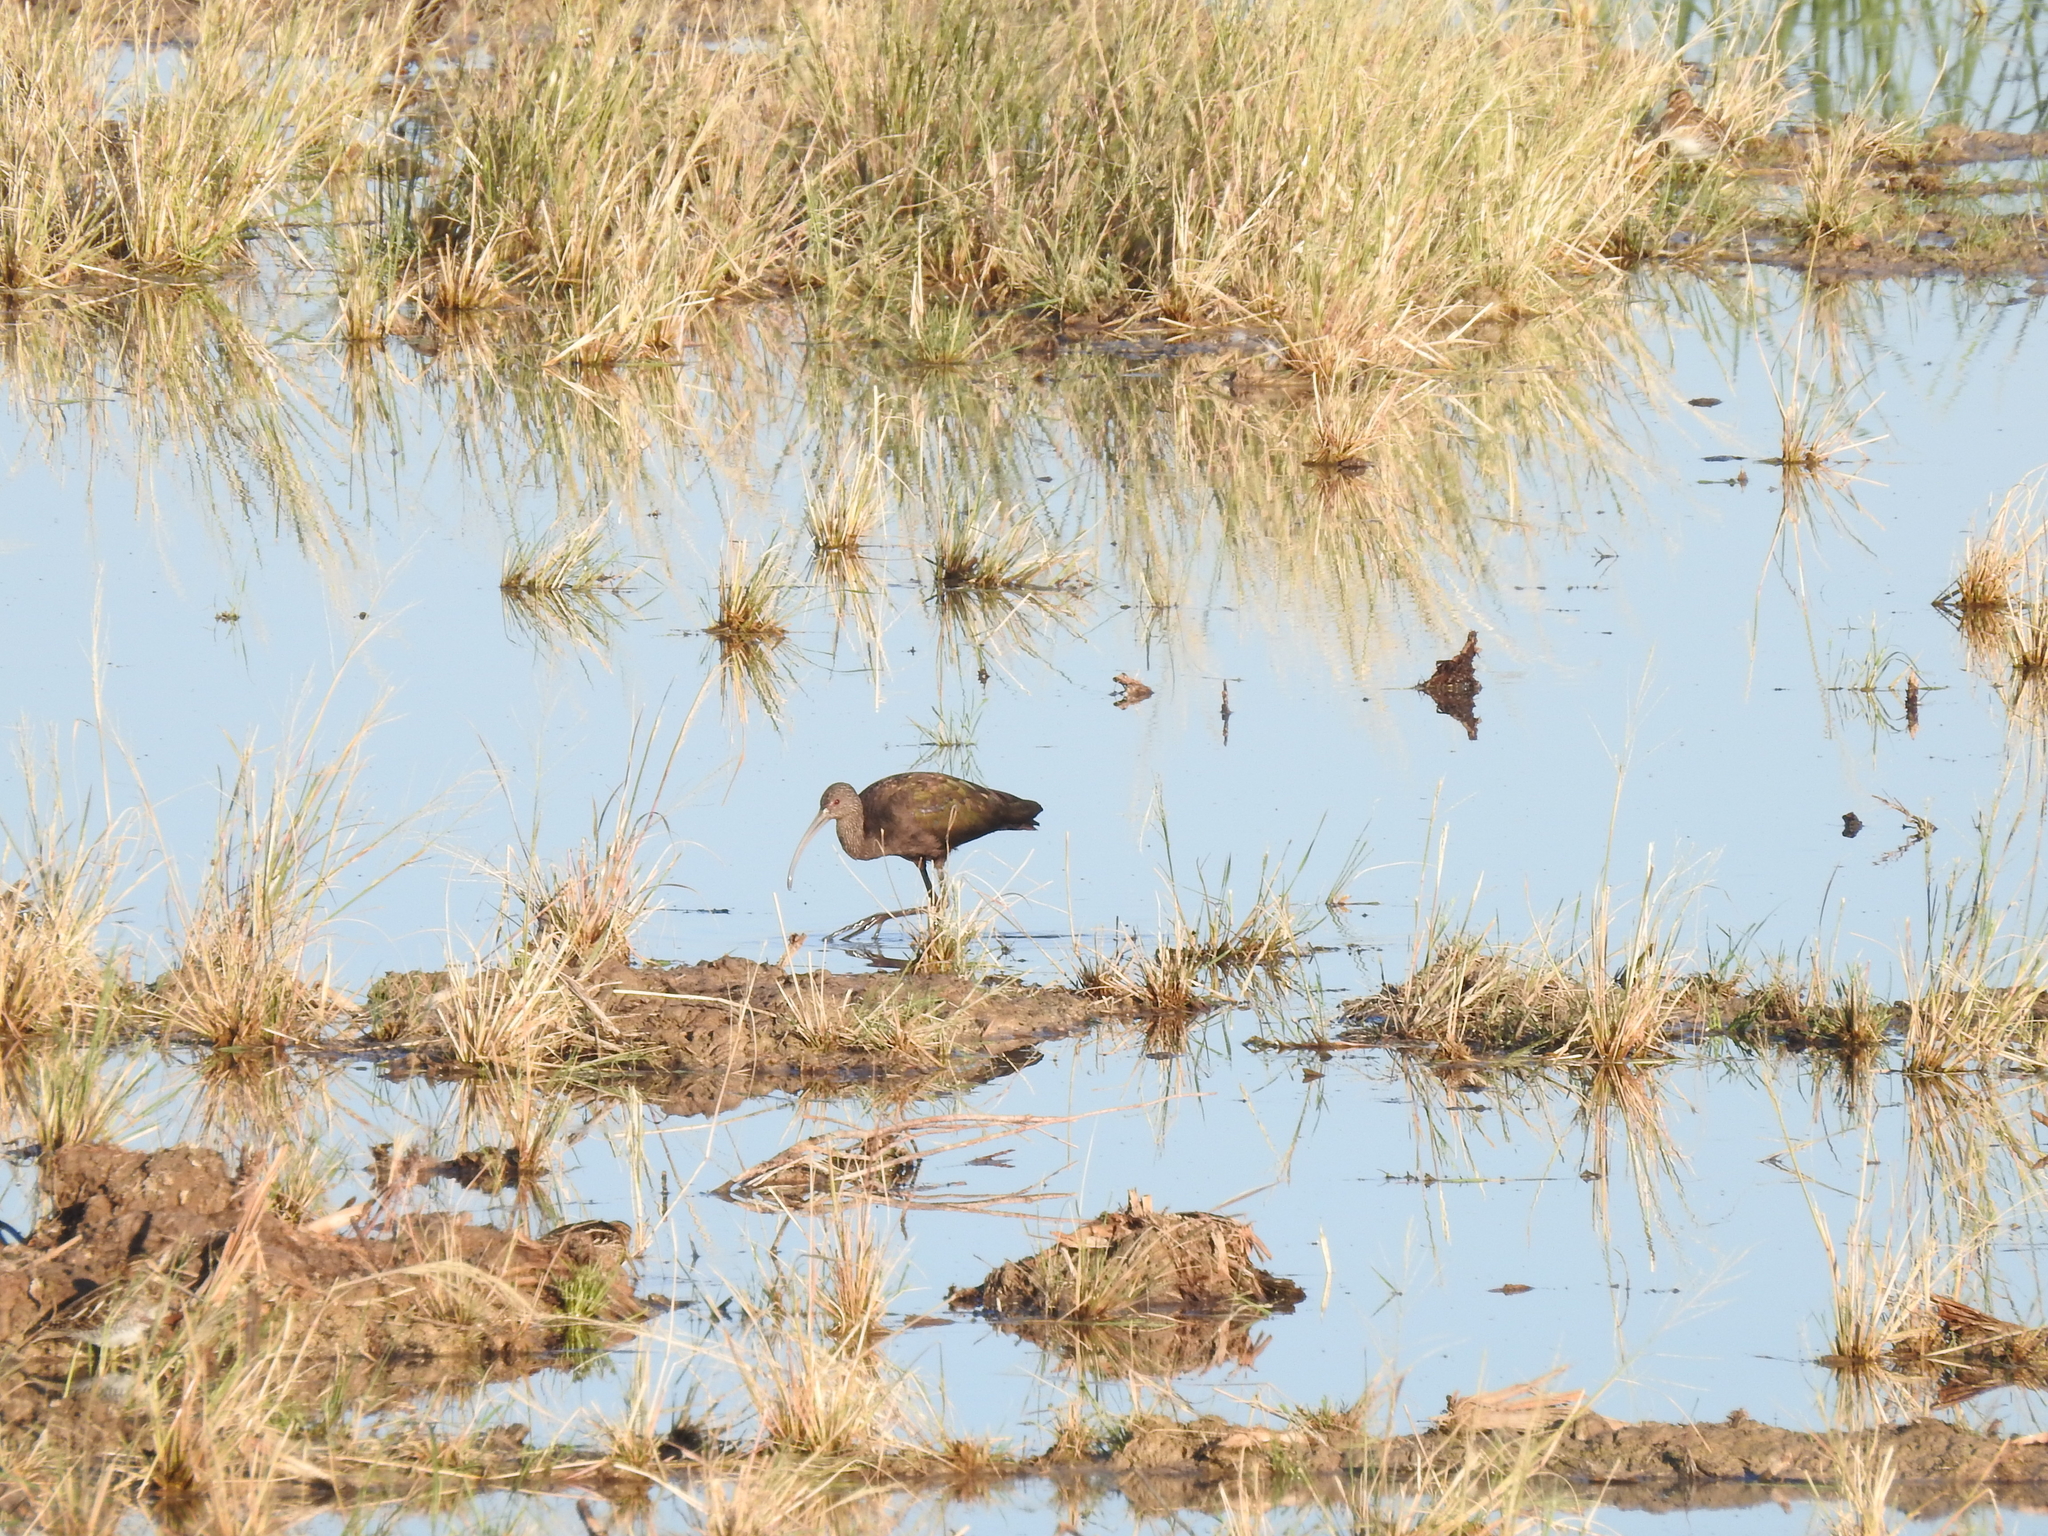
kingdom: Animalia
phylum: Chordata
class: Aves
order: Pelecaniformes
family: Threskiornithidae
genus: Plegadis
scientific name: Plegadis chihi
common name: White-faced ibis
